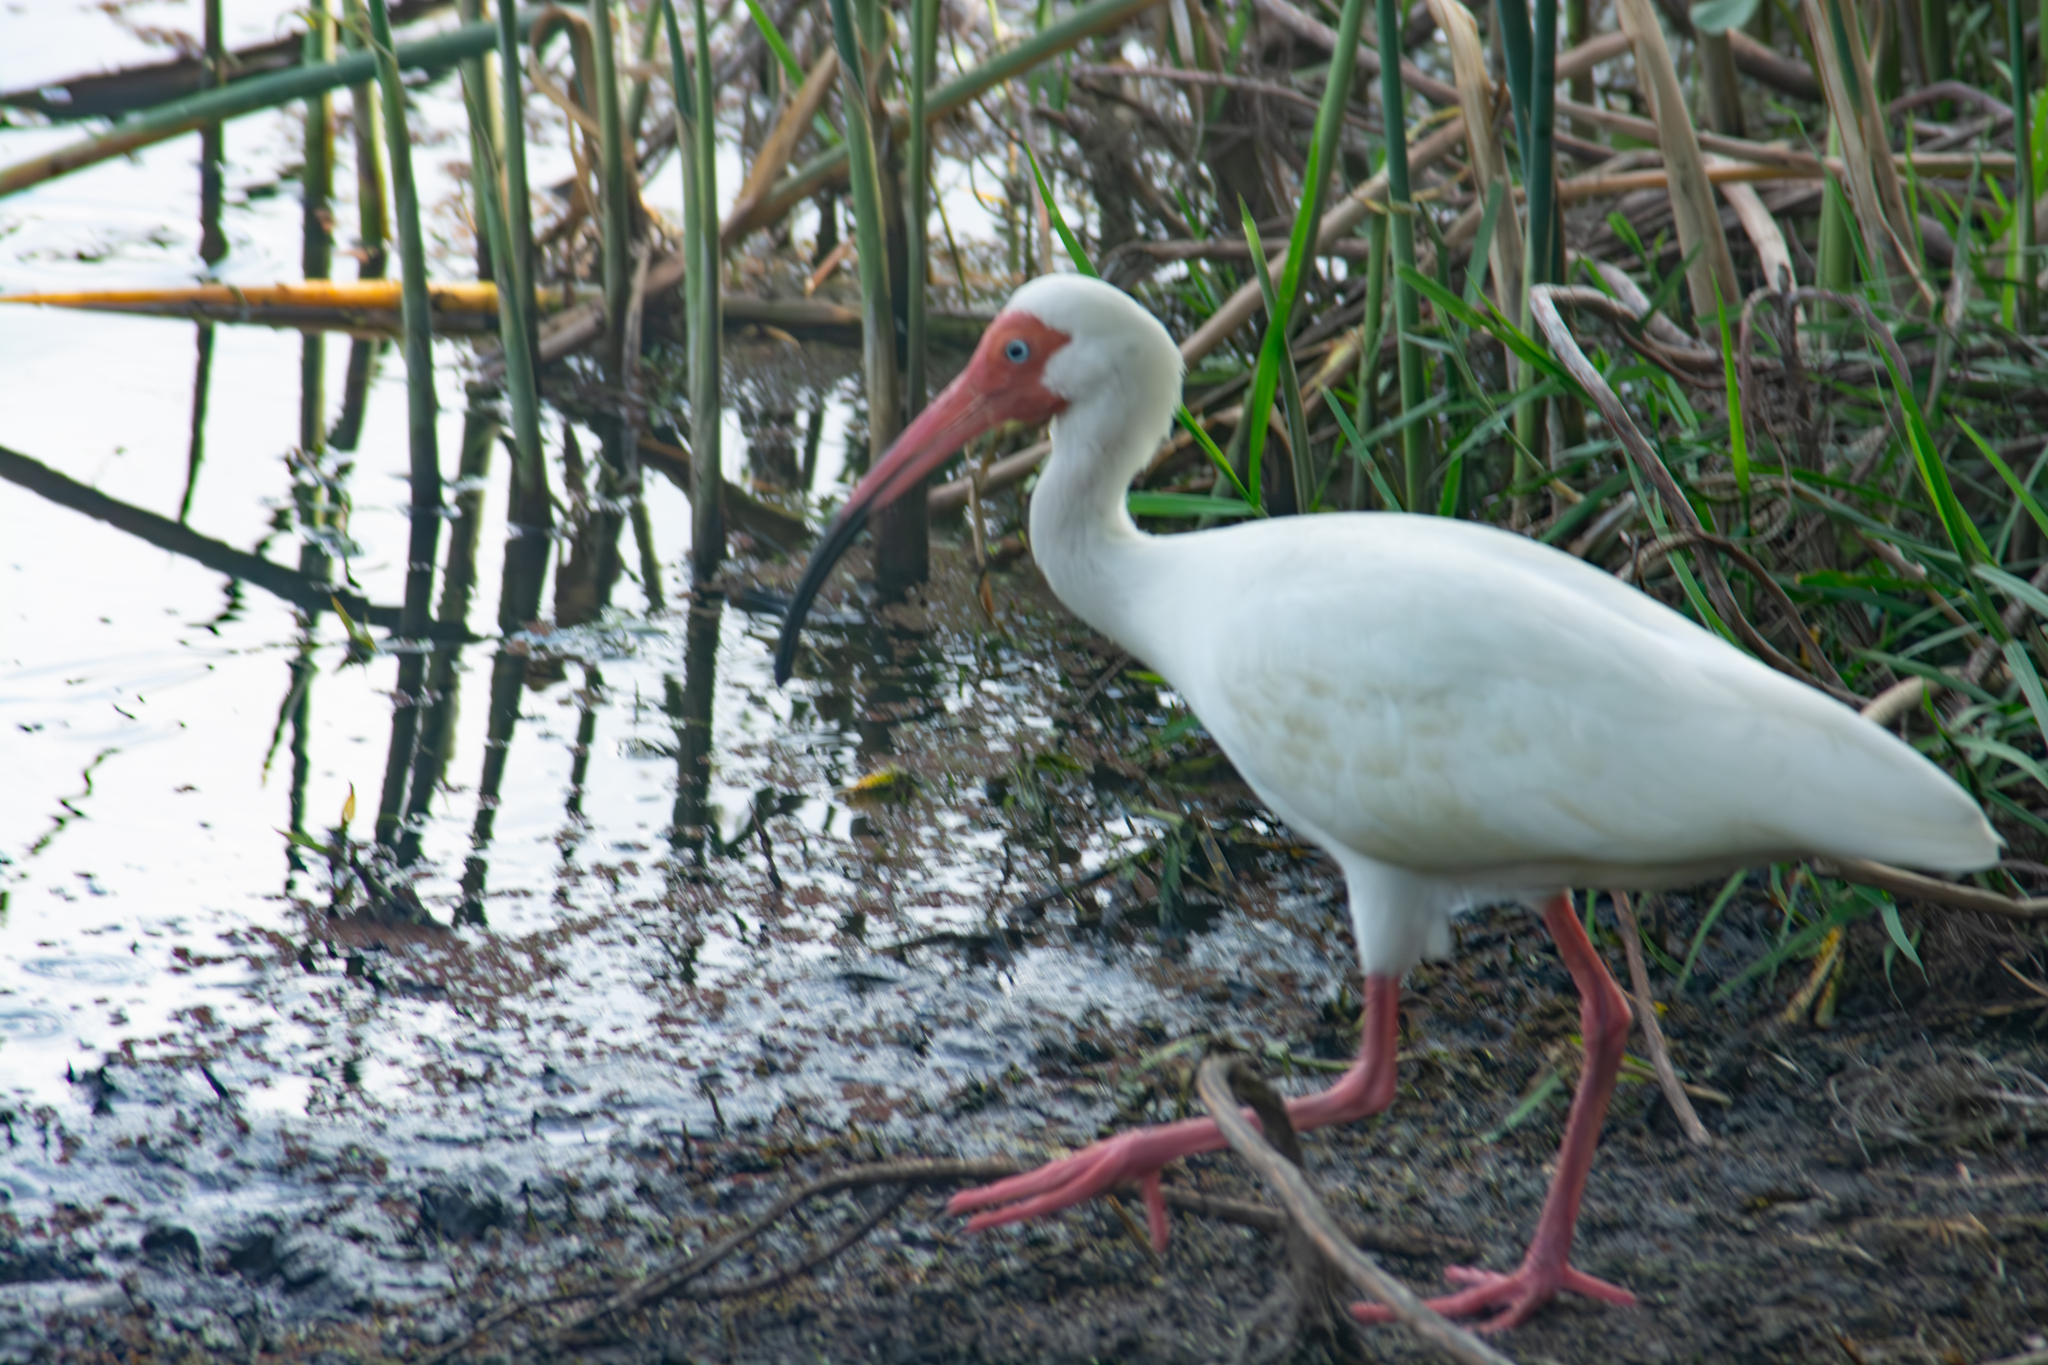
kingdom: Animalia
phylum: Chordata
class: Aves
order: Pelecaniformes
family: Threskiornithidae
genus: Eudocimus
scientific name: Eudocimus albus
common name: White ibis
